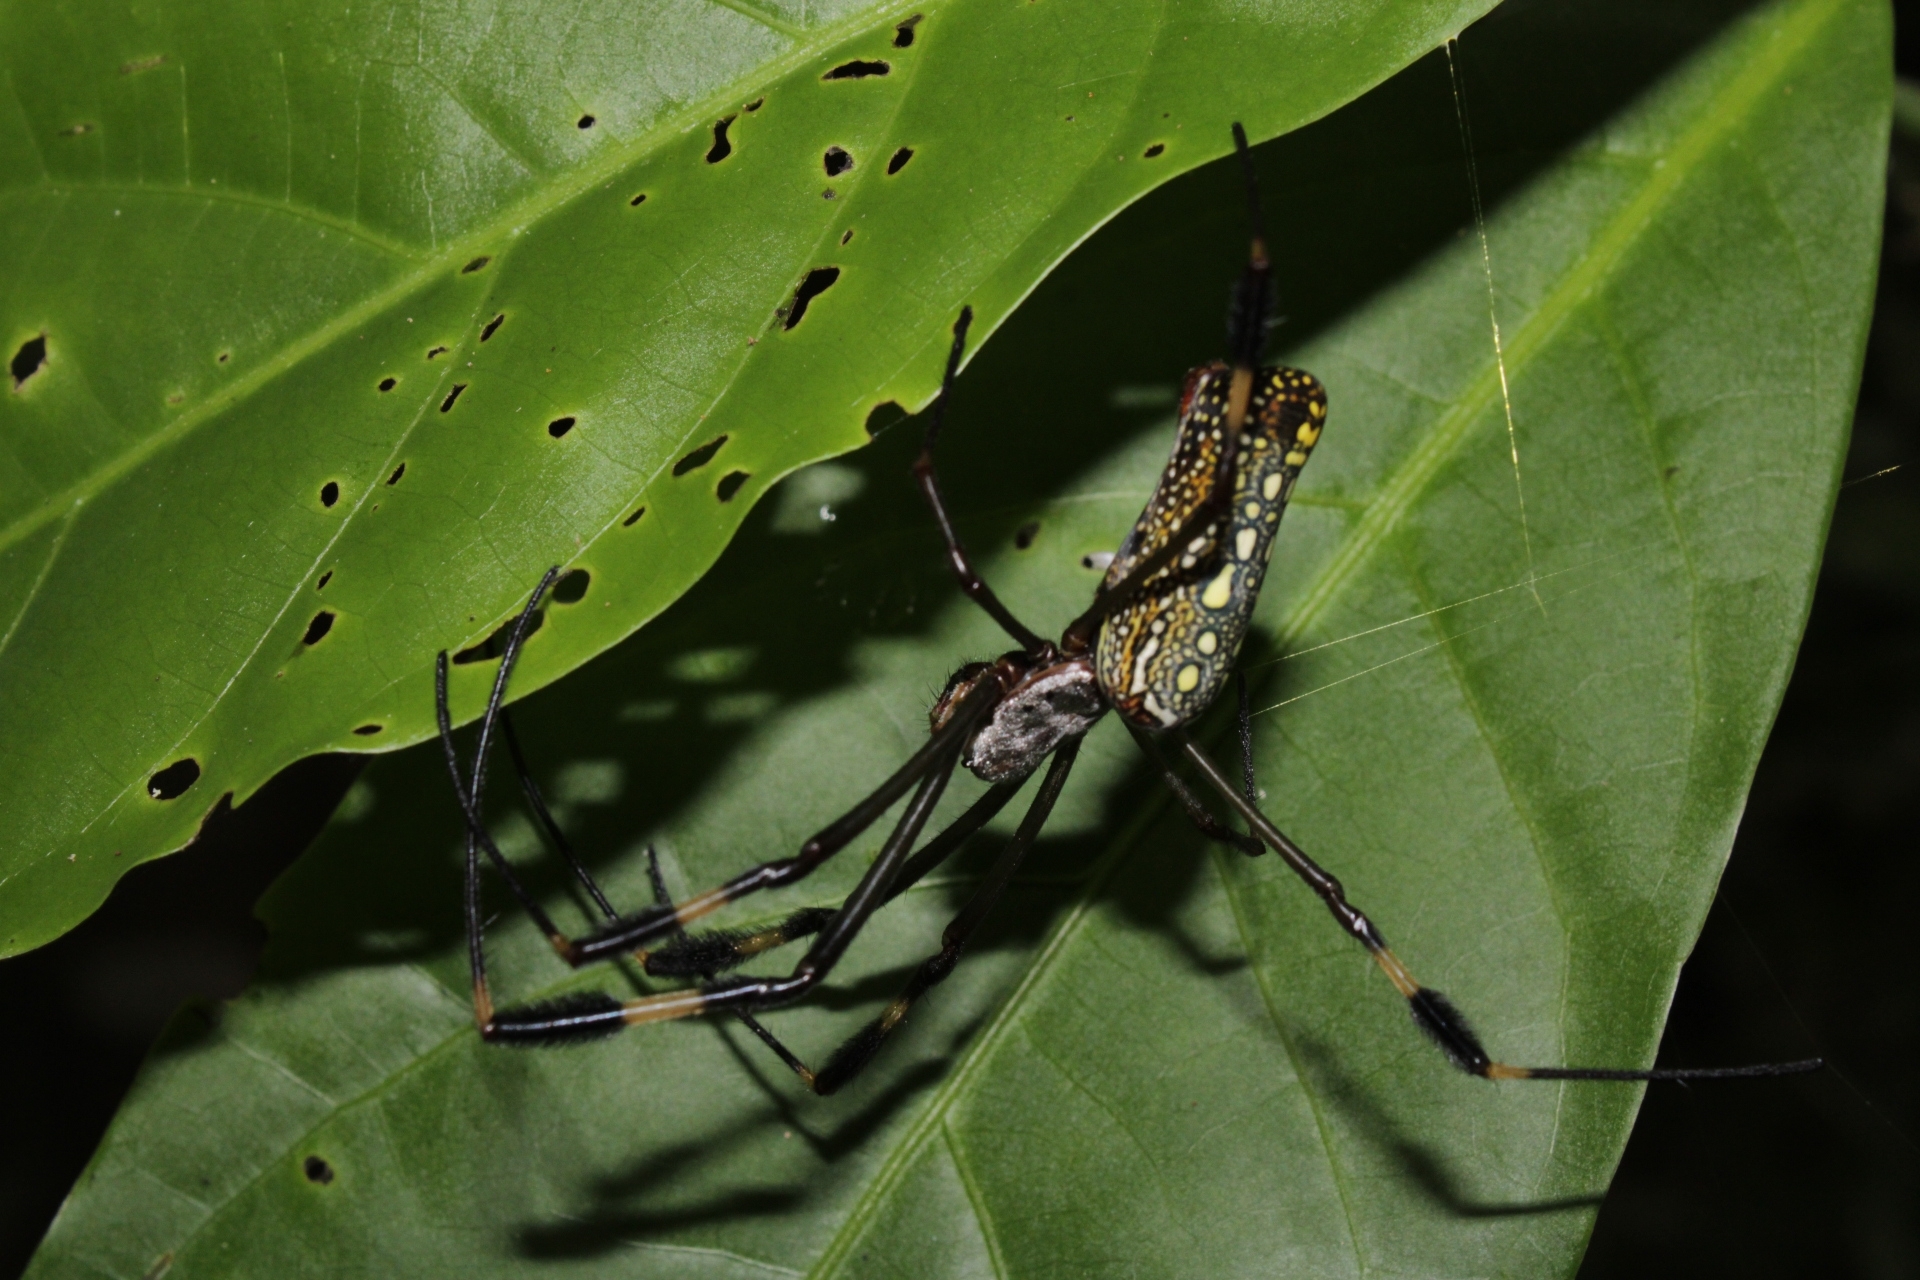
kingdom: Animalia
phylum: Arthropoda
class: Arachnida
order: Araneae
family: Araneidae
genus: Trichonephila
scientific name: Trichonephila clavipes
